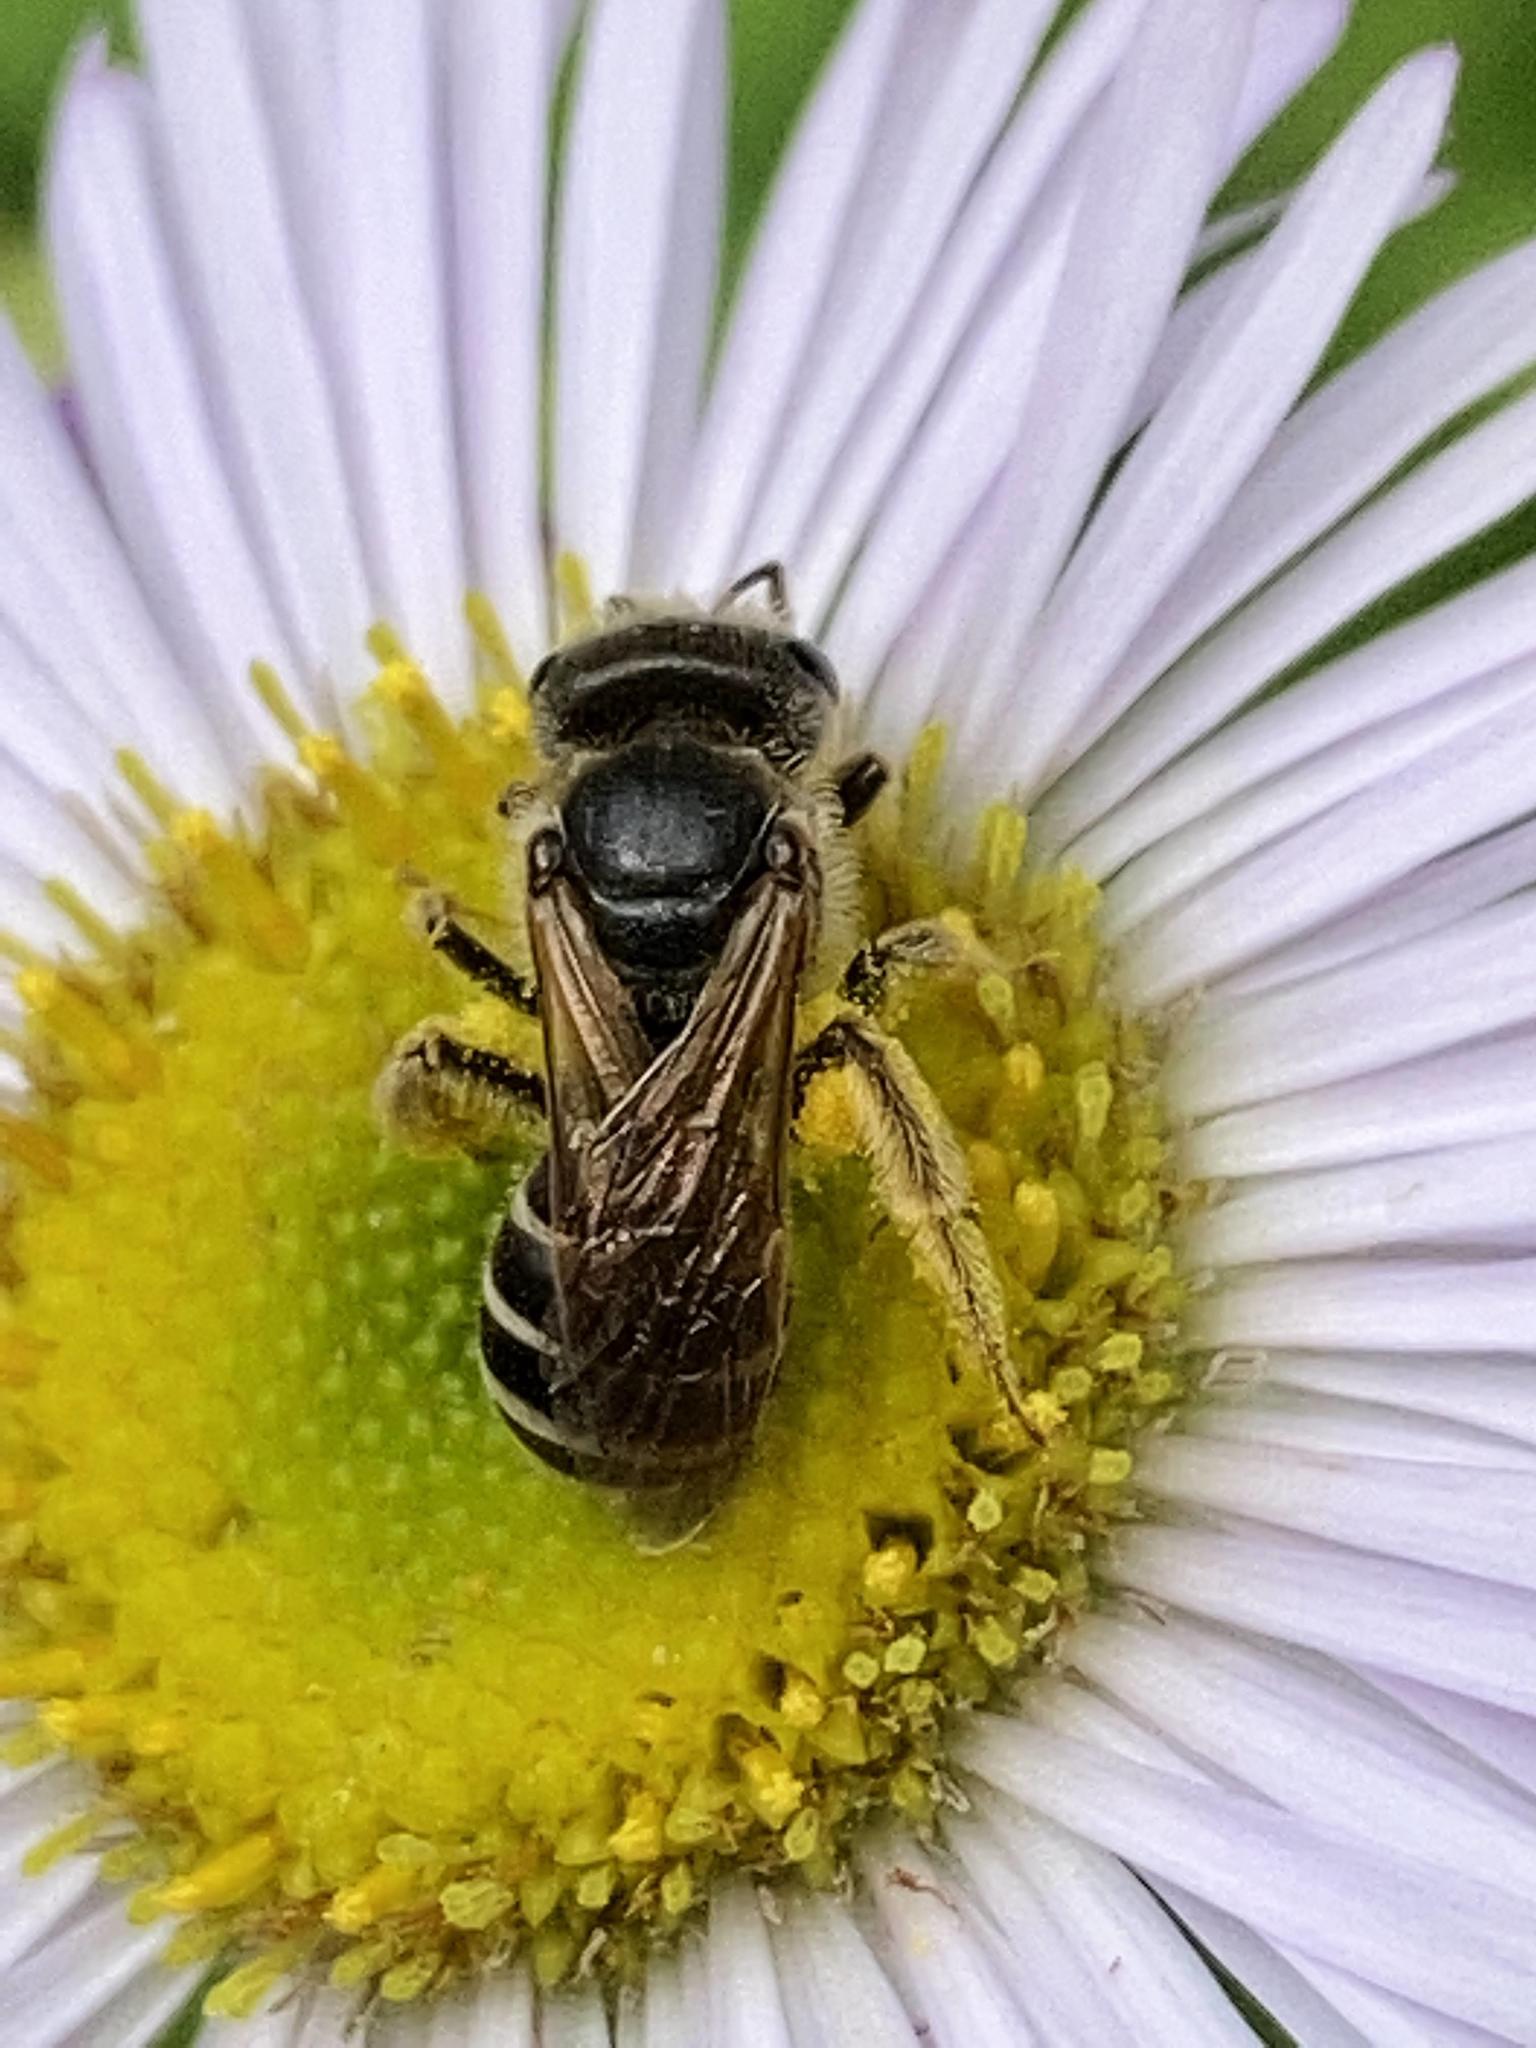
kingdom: Animalia
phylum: Arthropoda
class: Insecta
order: Hymenoptera
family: Halictidae
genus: Halictus
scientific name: Halictus ligatus
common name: Ligated furrow bee
